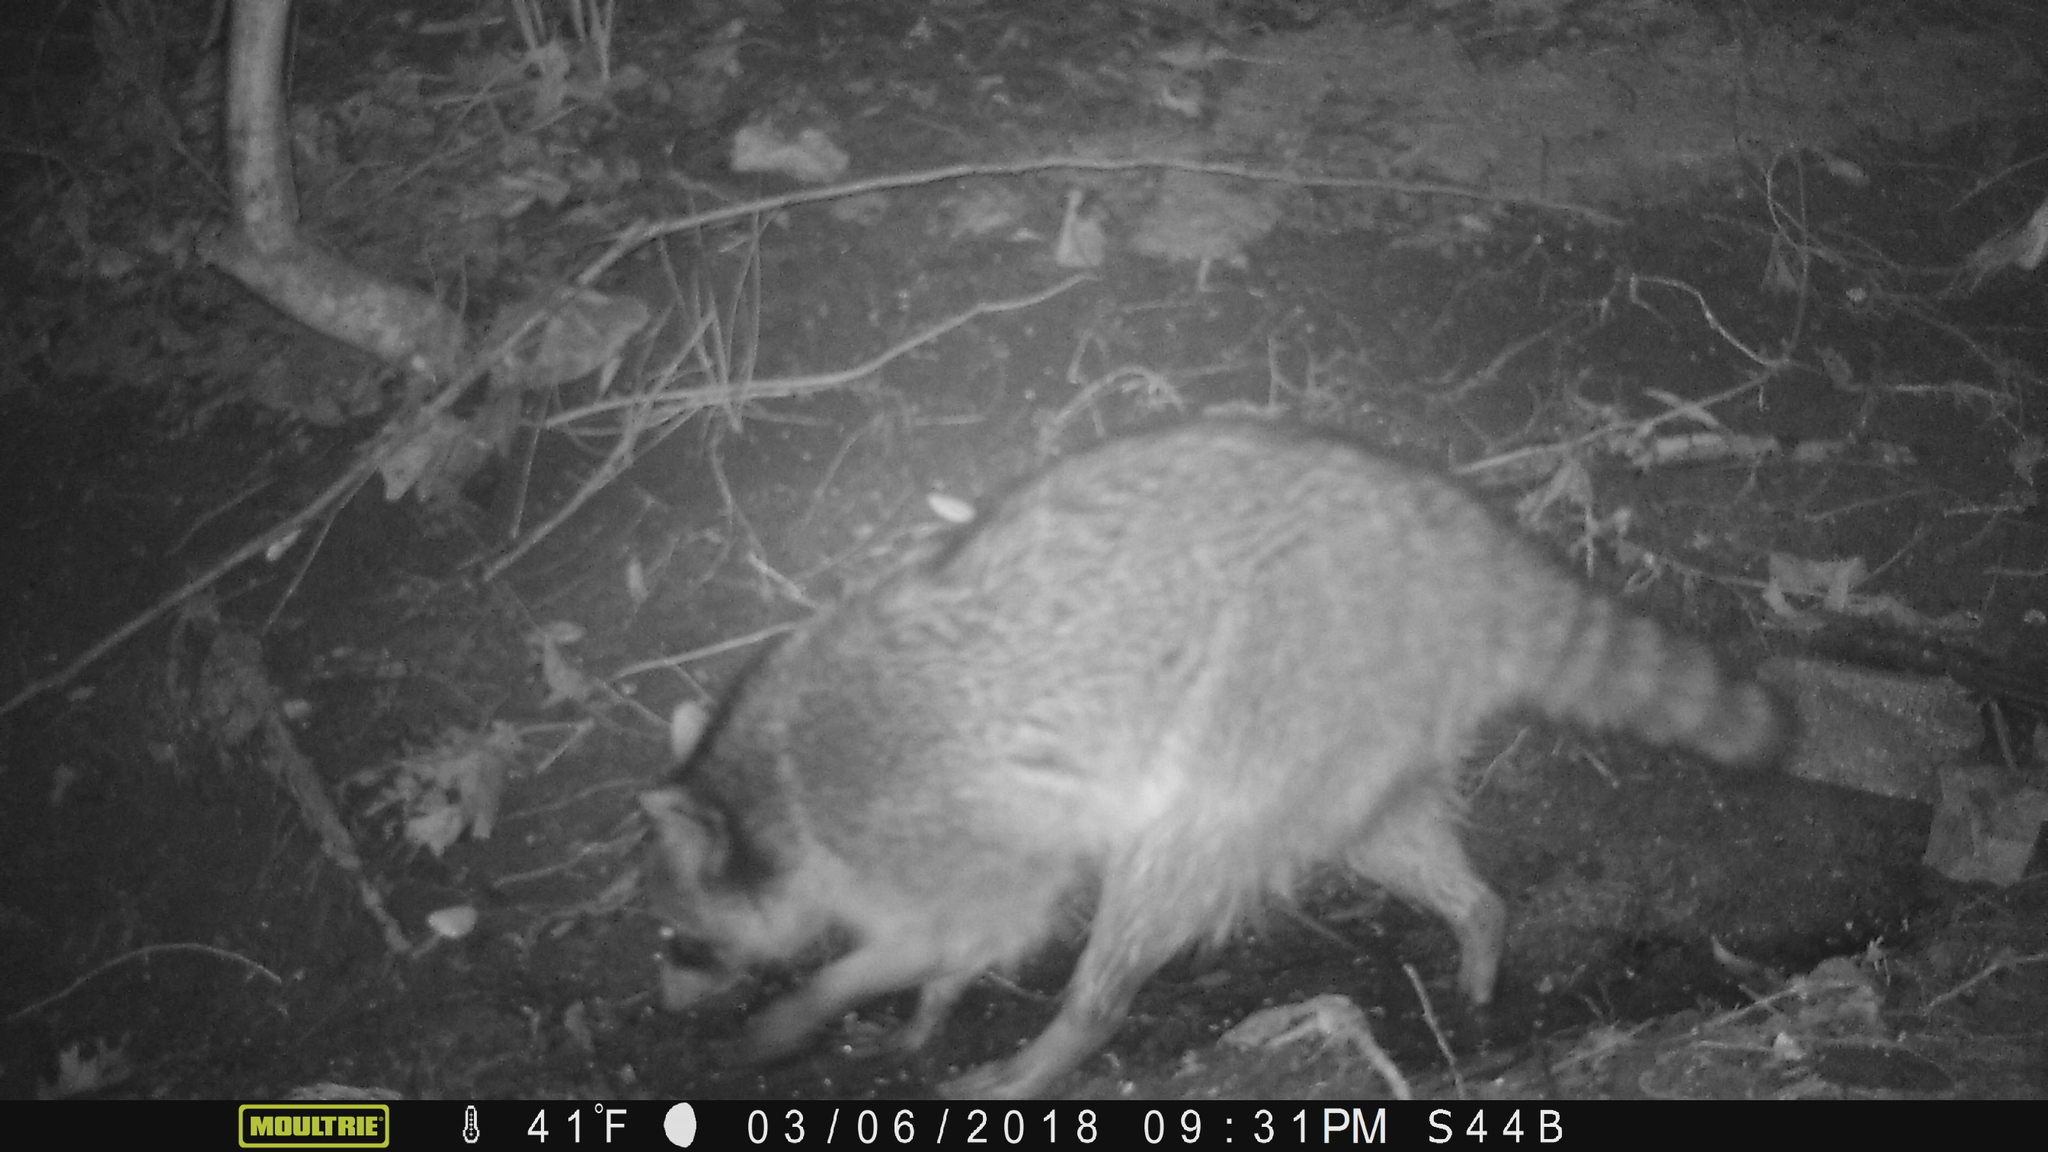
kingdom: Animalia
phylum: Chordata
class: Mammalia
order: Carnivora
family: Procyonidae
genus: Procyon
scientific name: Procyon lotor
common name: Raccoon
